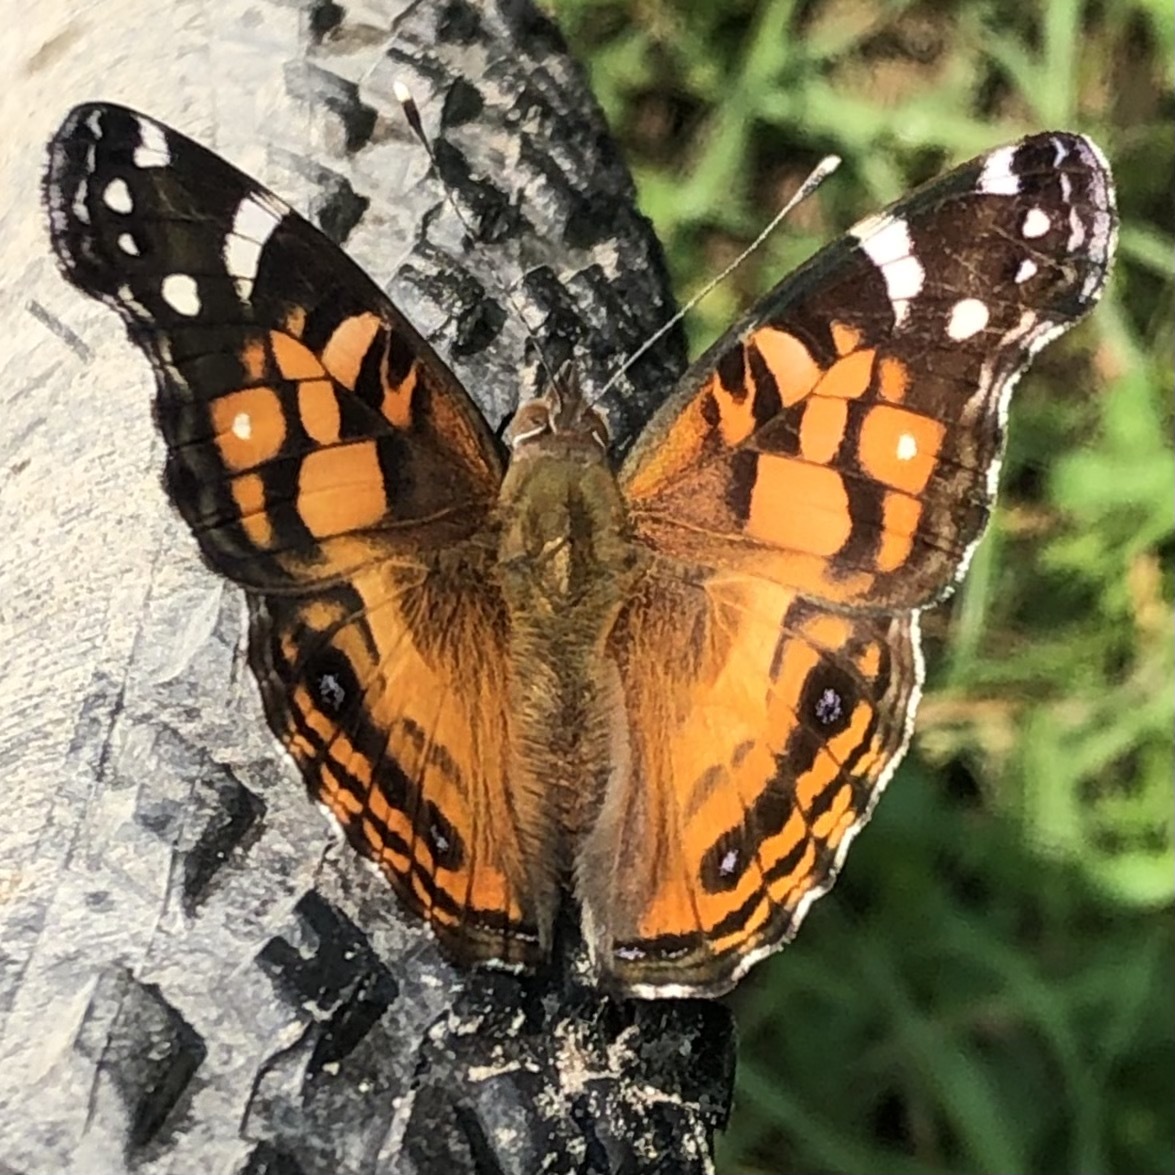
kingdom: Animalia
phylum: Arthropoda
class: Insecta
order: Lepidoptera
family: Nymphalidae
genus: Vanessa
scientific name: Vanessa virginiensis
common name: American lady
